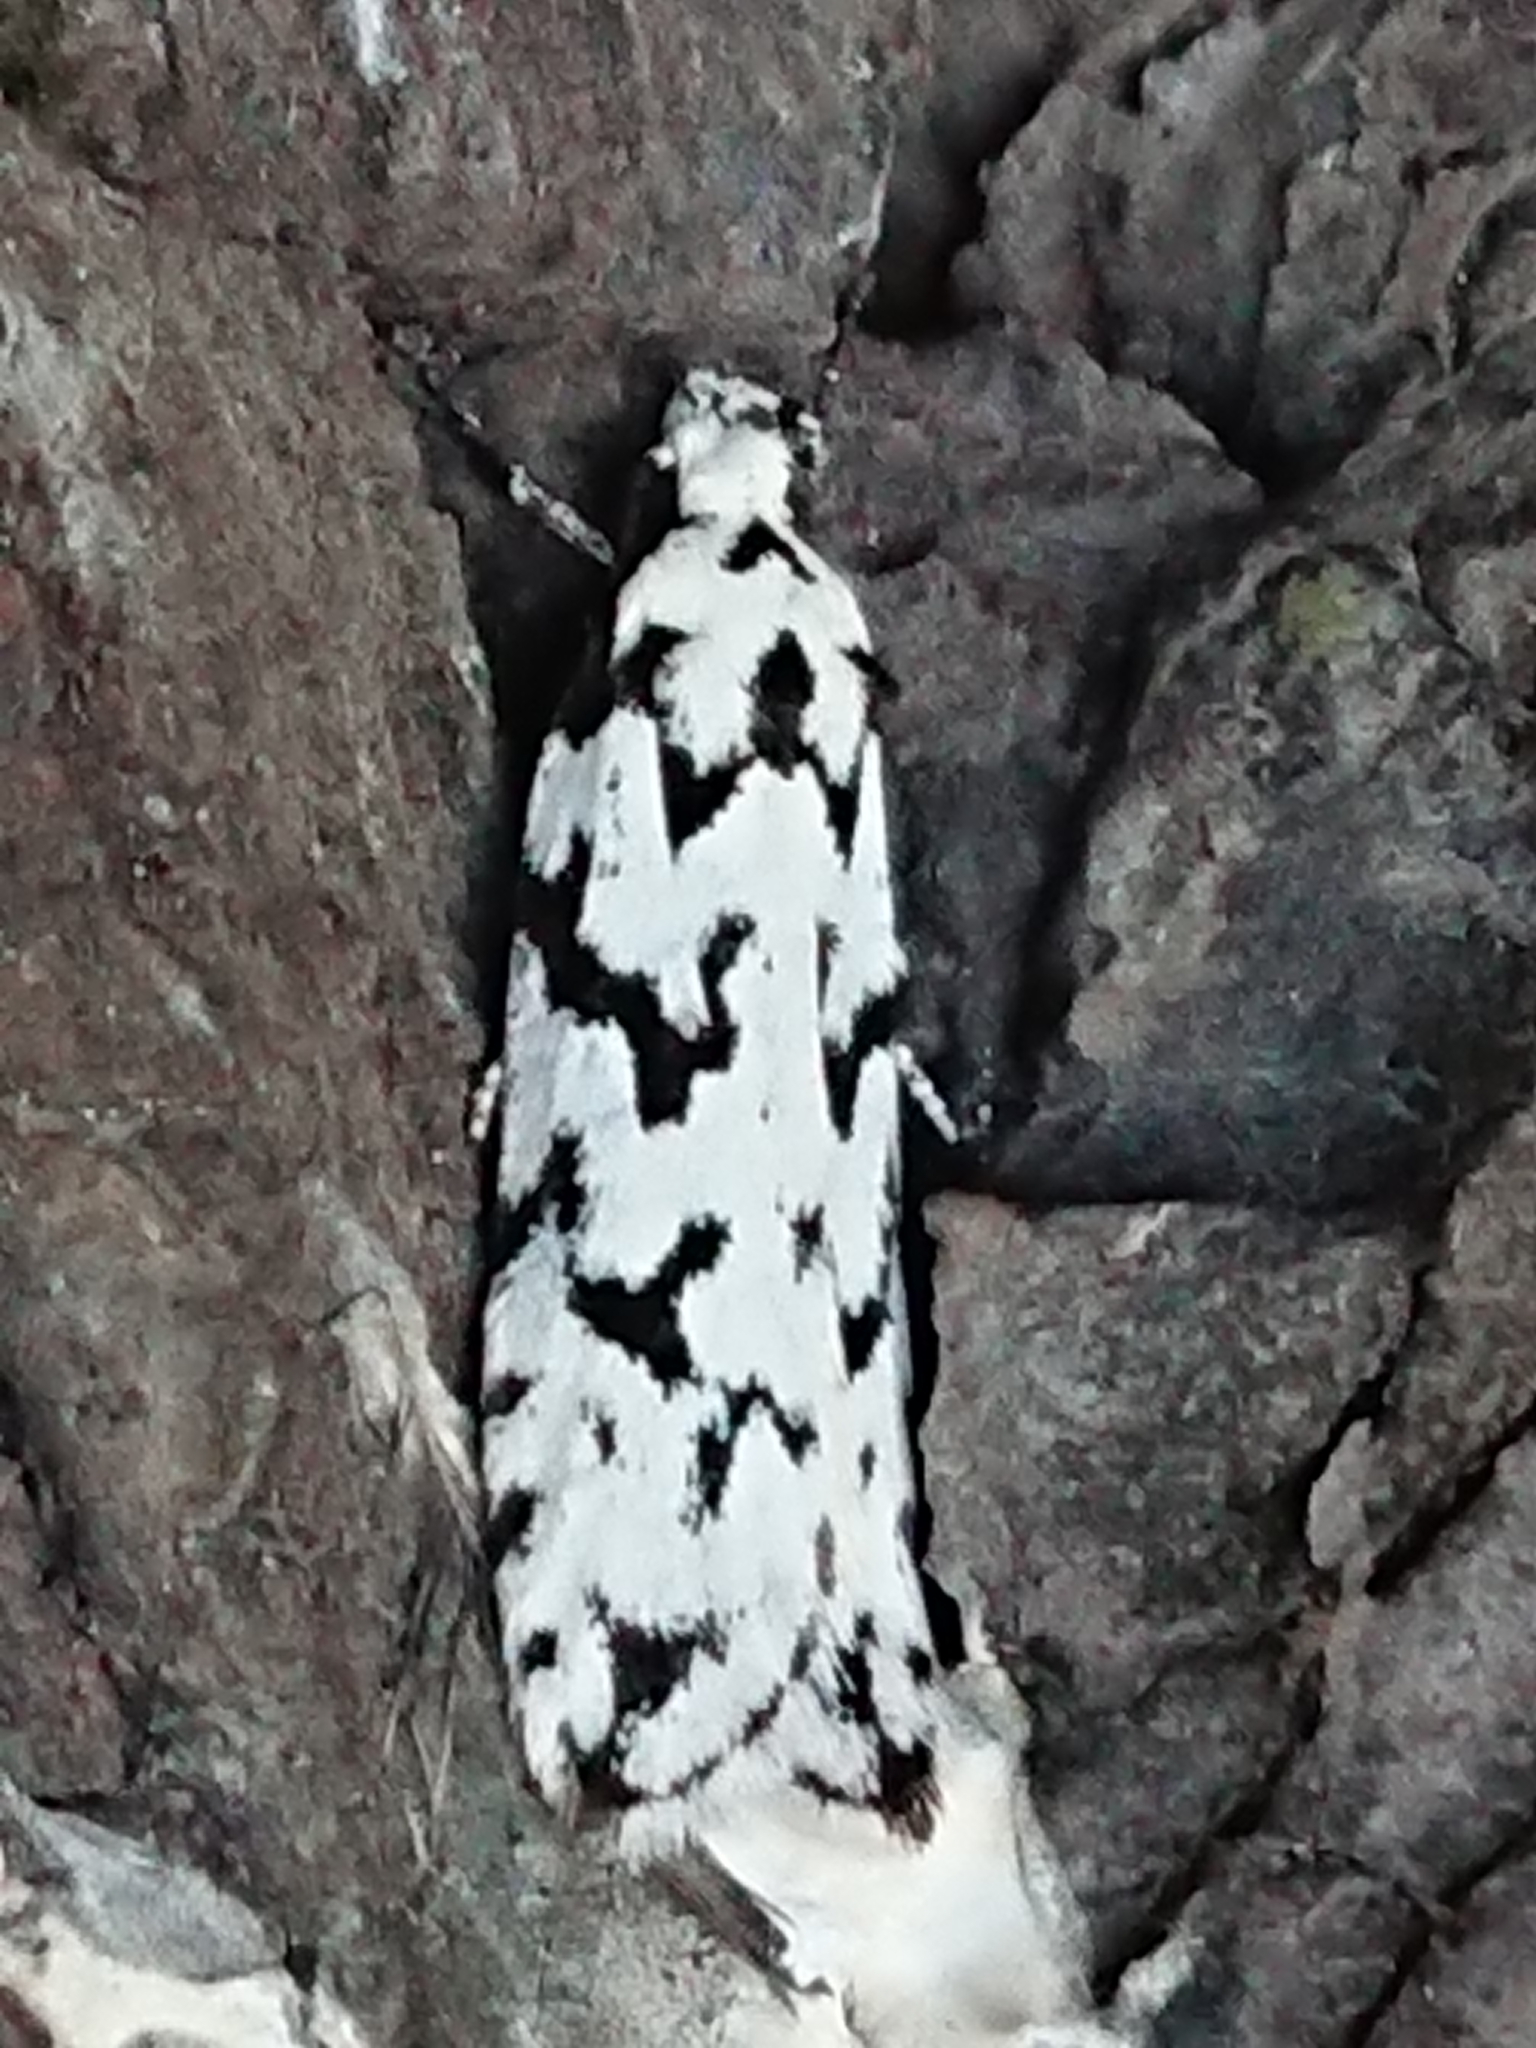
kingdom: Animalia
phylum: Arthropoda
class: Insecta
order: Lepidoptera
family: Oecophoridae
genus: Izatha
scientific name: Izatha katadiktya
